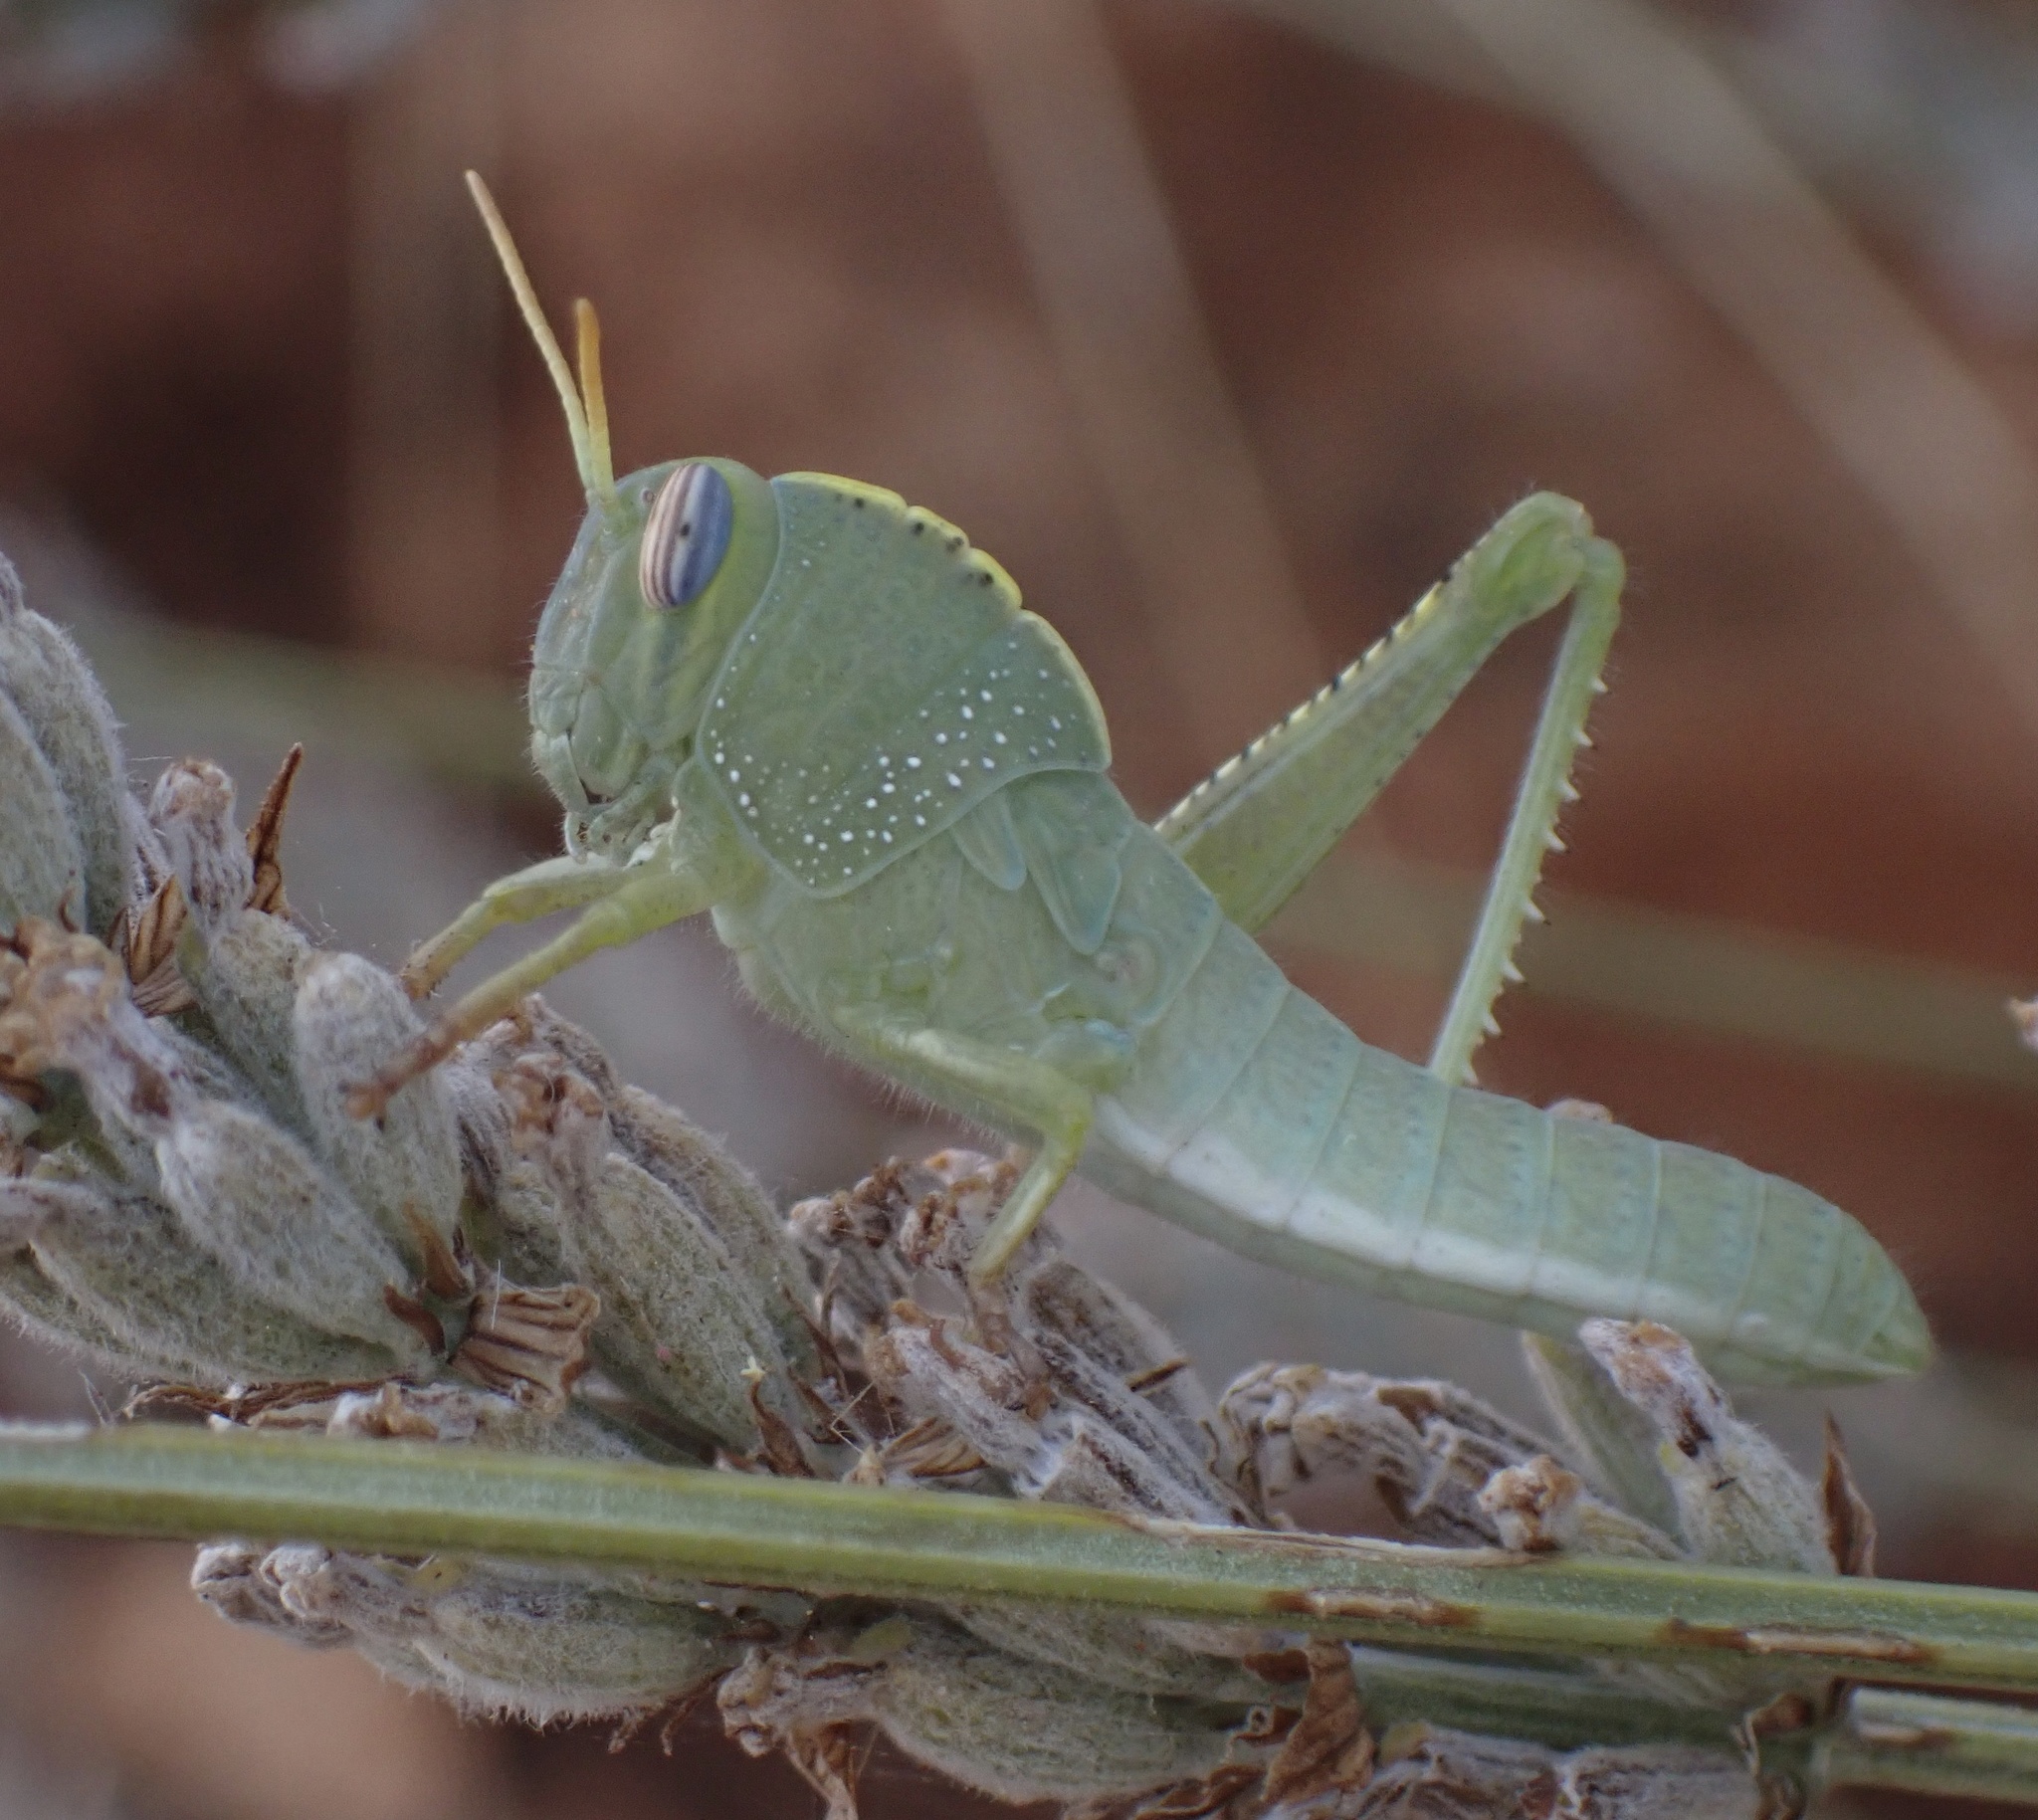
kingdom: Animalia
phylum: Arthropoda
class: Insecta
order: Orthoptera
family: Acrididae
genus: Anacridium
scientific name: Anacridium aegyptium
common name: Egyptian grasshopper
